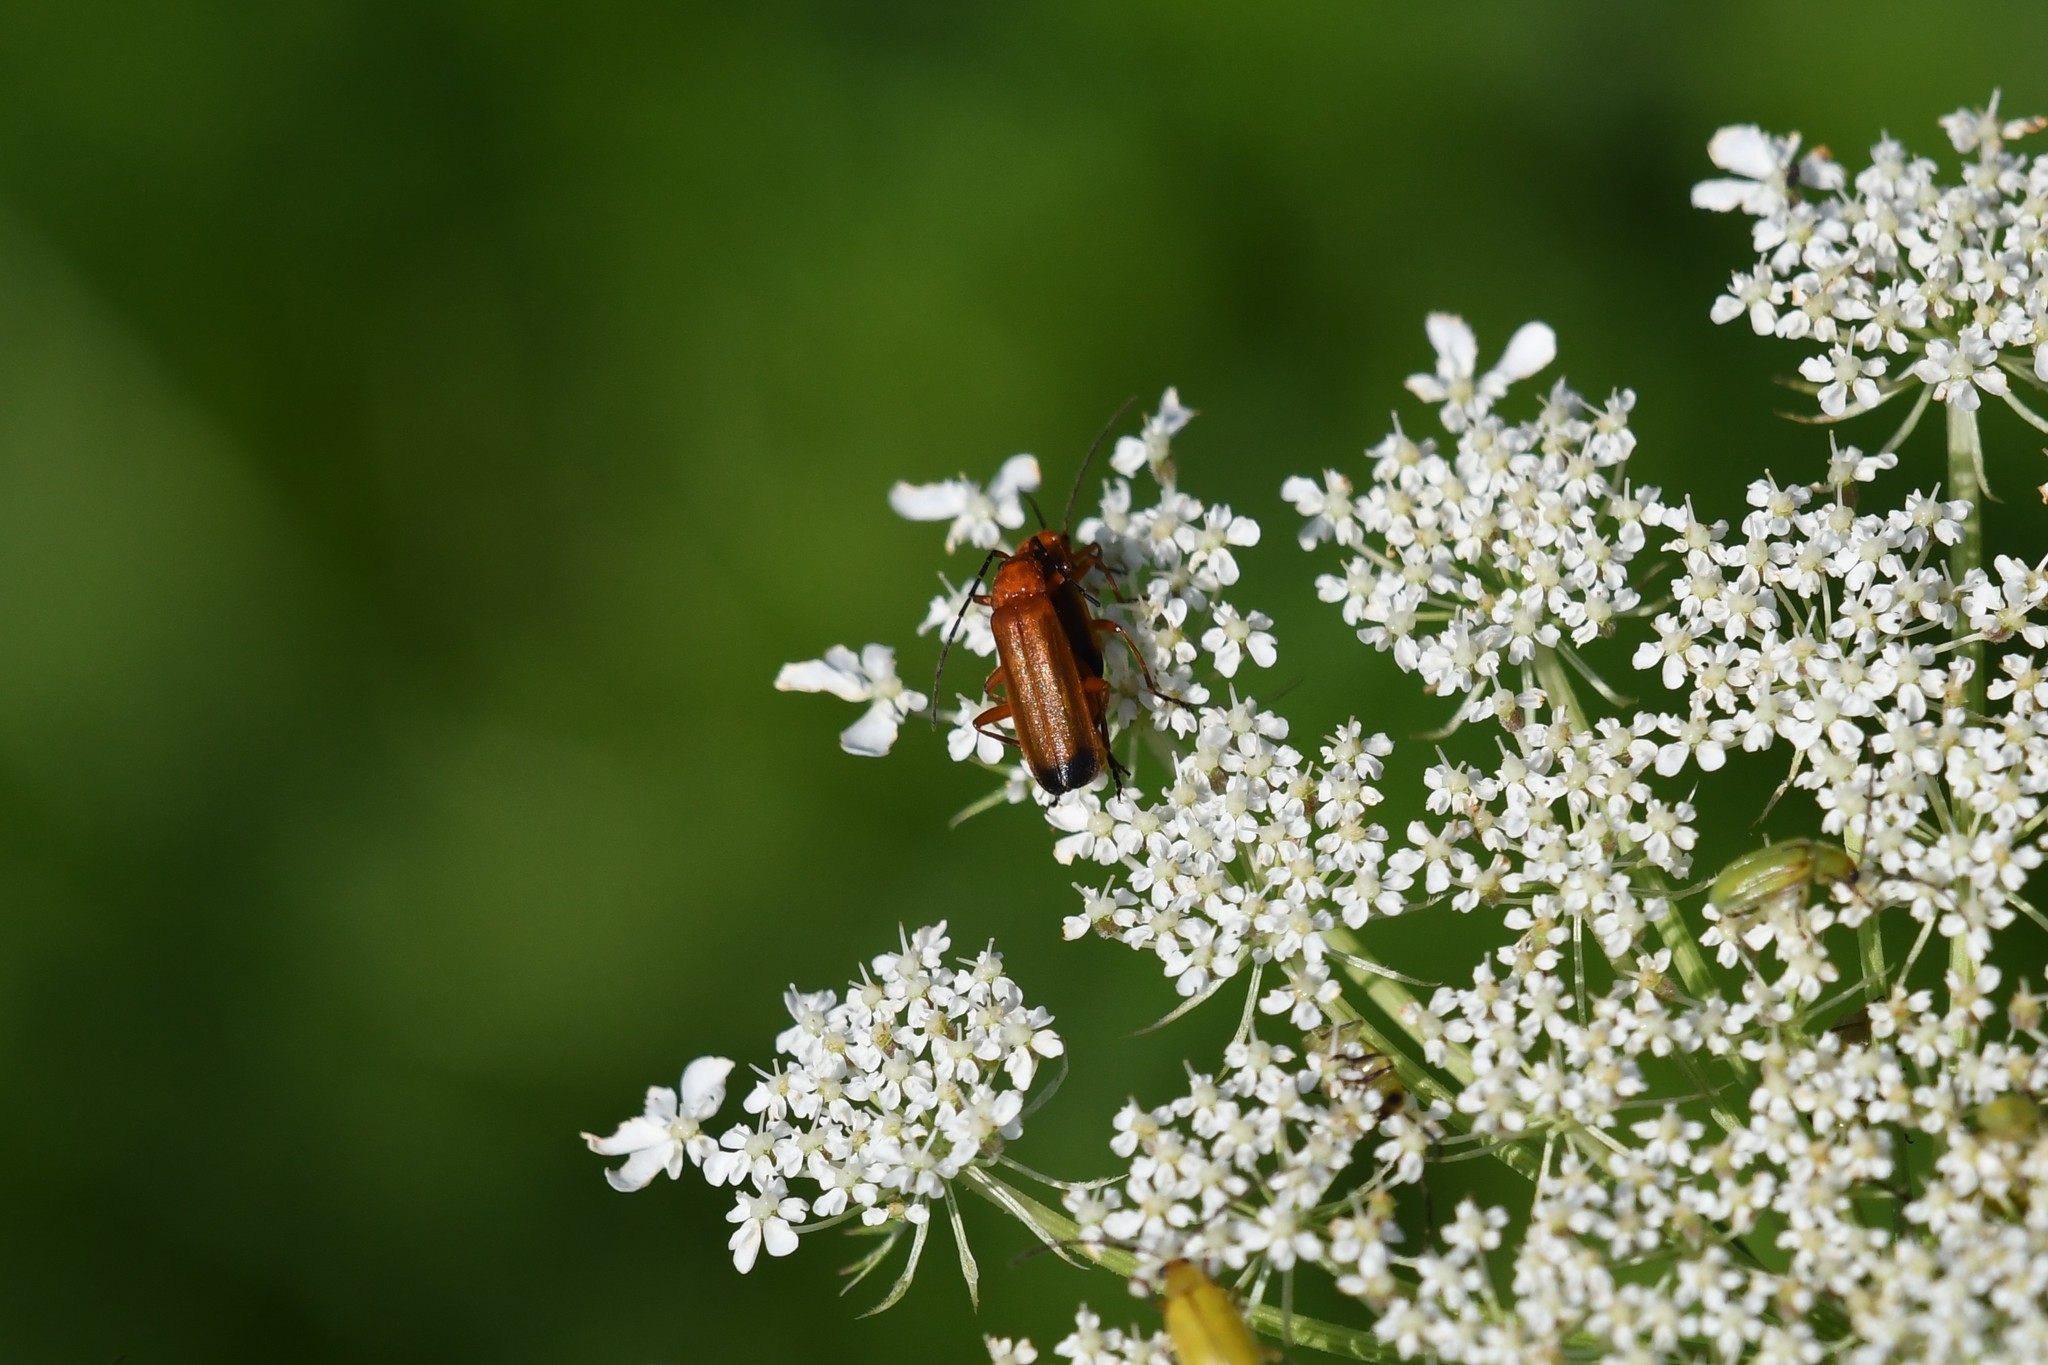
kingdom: Animalia
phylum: Arthropoda
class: Insecta
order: Coleoptera
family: Cantharidae
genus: Rhagonycha
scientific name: Rhagonycha fulva
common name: Common red soldier beetle
